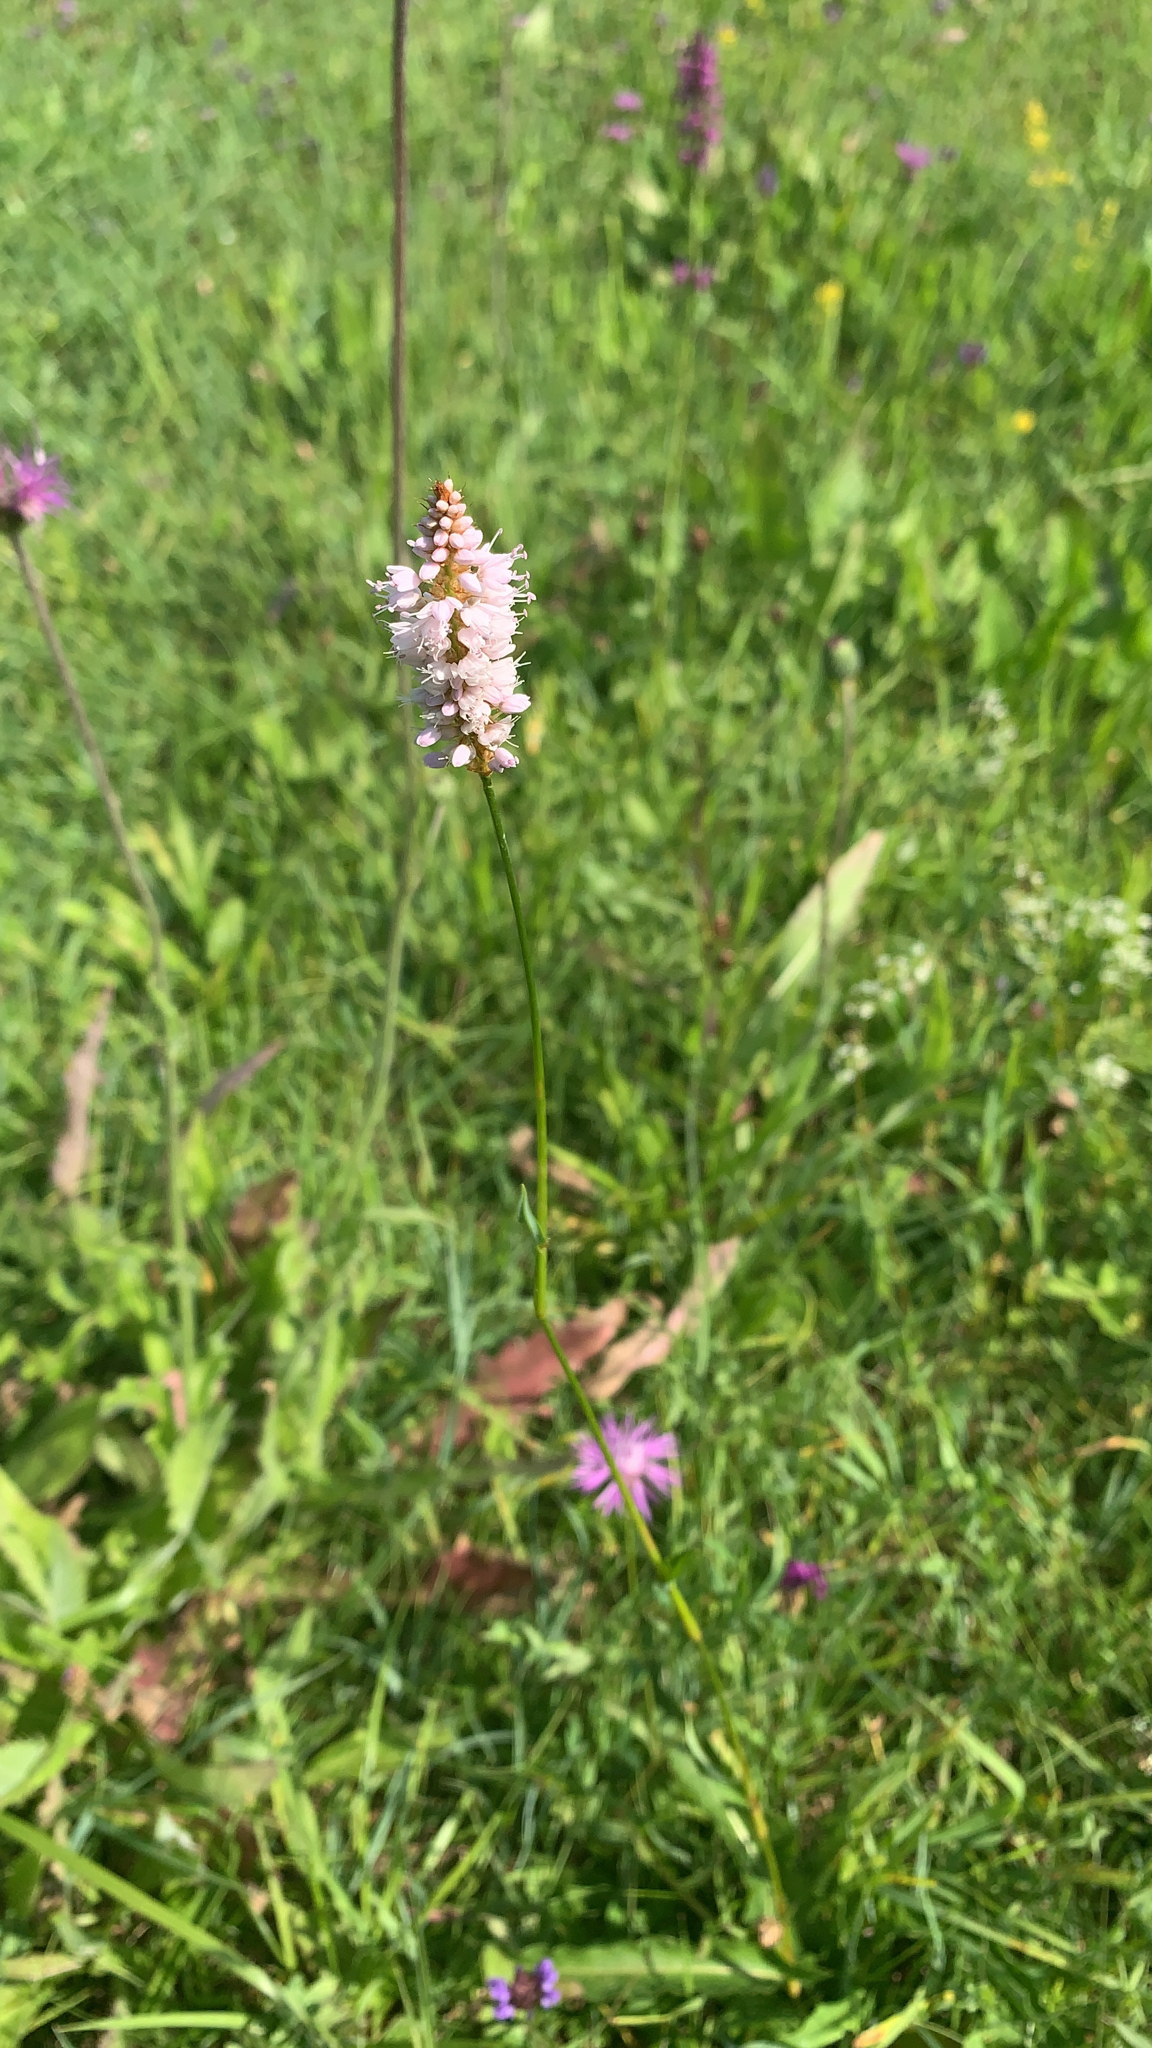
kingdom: Plantae
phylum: Tracheophyta
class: Magnoliopsida
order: Caryophyllales
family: Polygonaceae
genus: Bistorta
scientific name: Bistorta officinalis
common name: Common bistort
